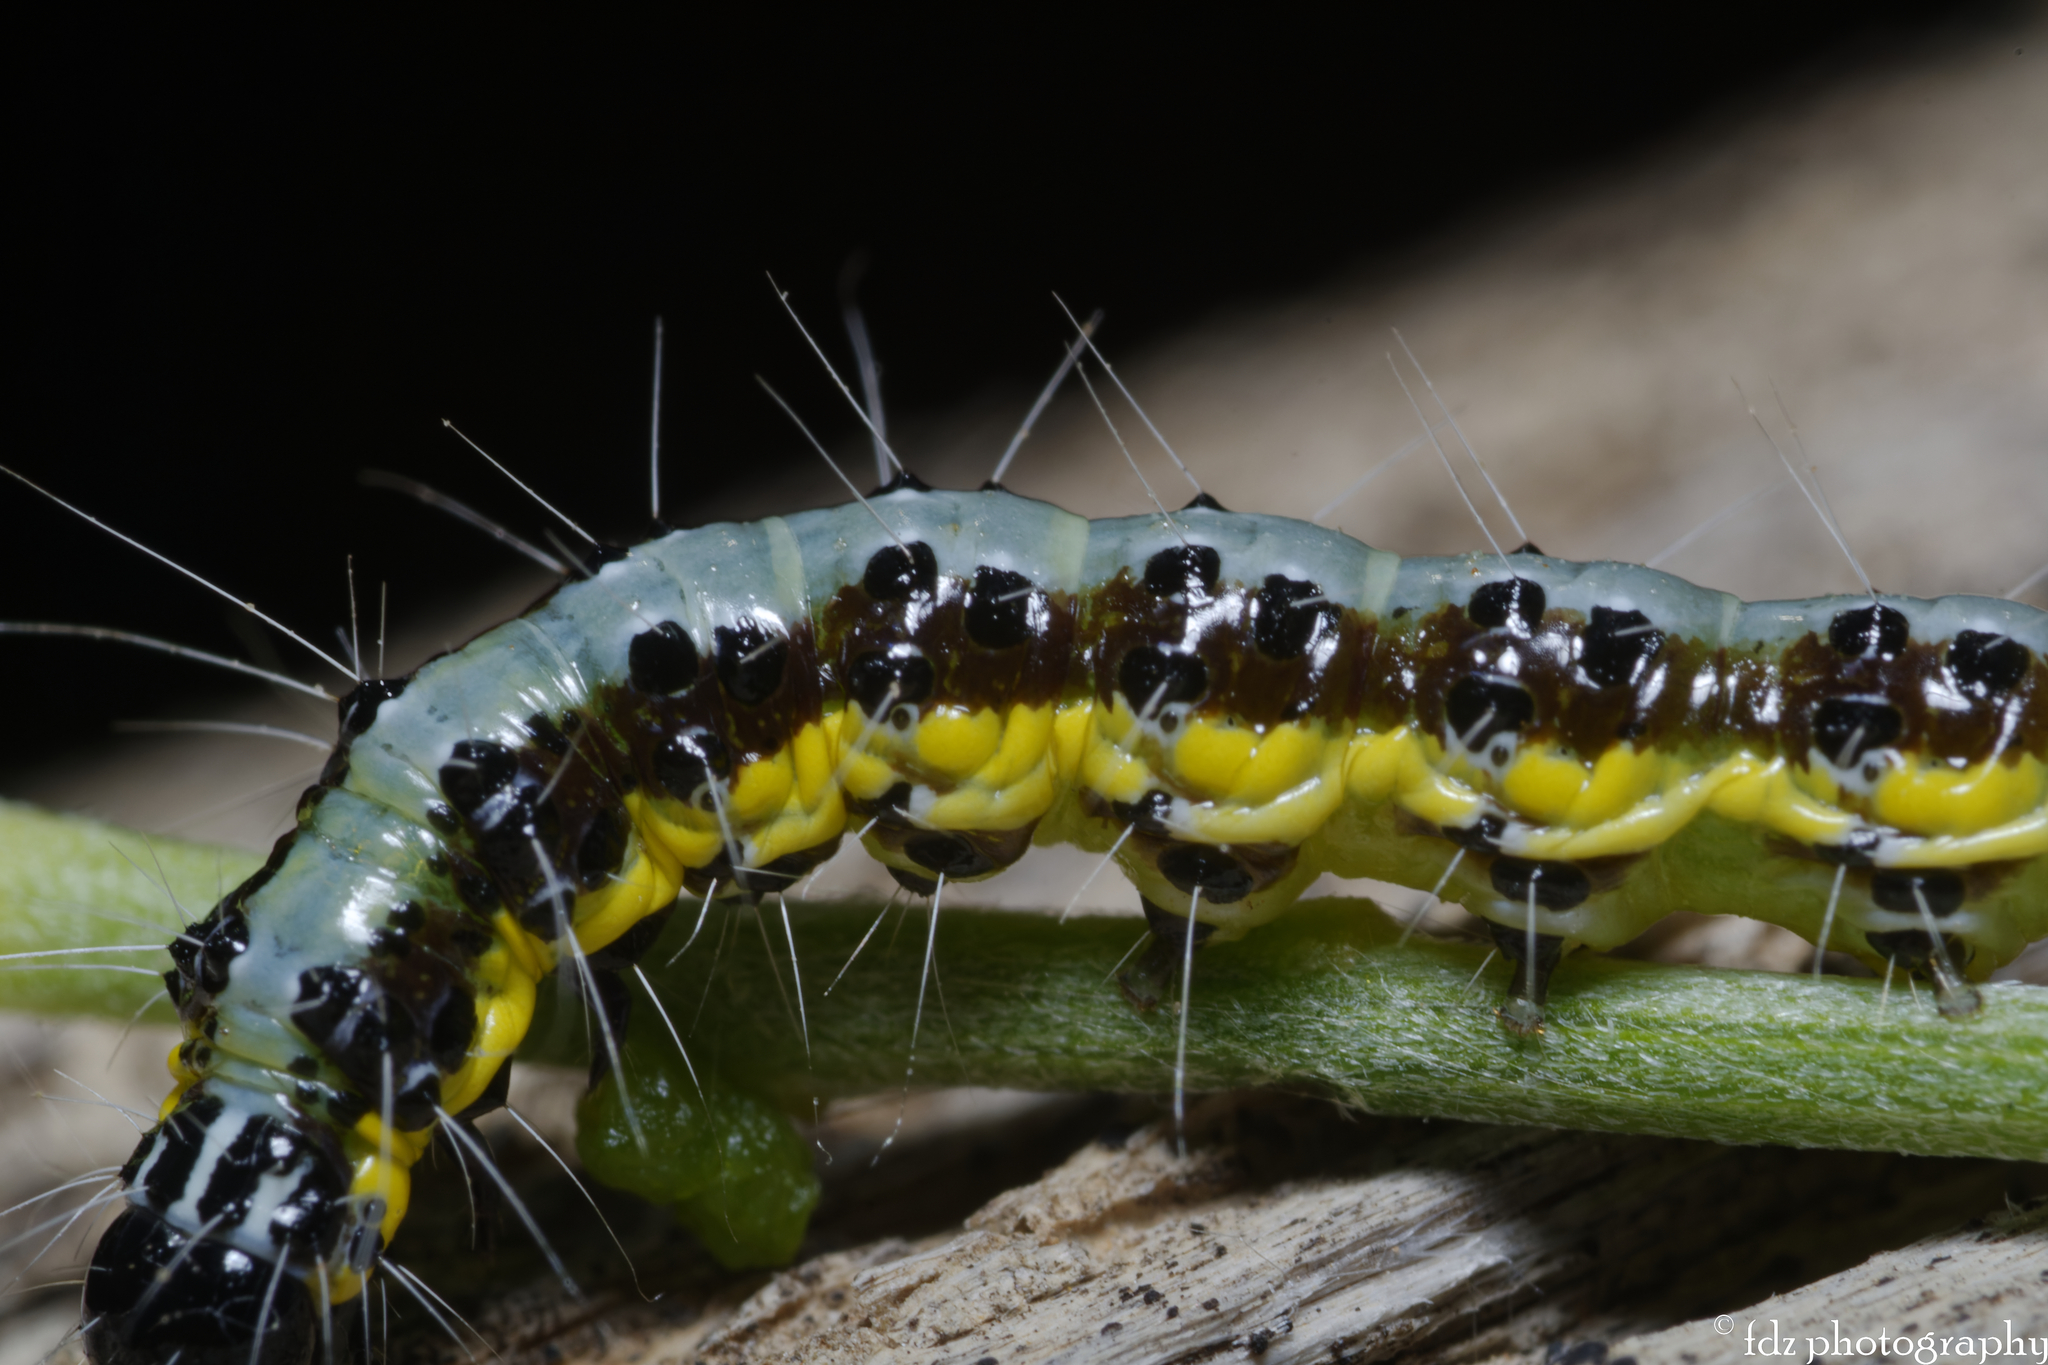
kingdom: Animalia
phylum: Arthropoda
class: Insecta
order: Lepidoptera
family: Crambidae
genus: Uresiphita
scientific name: Uresiphita gilvata
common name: Yellow-underwing pearl
